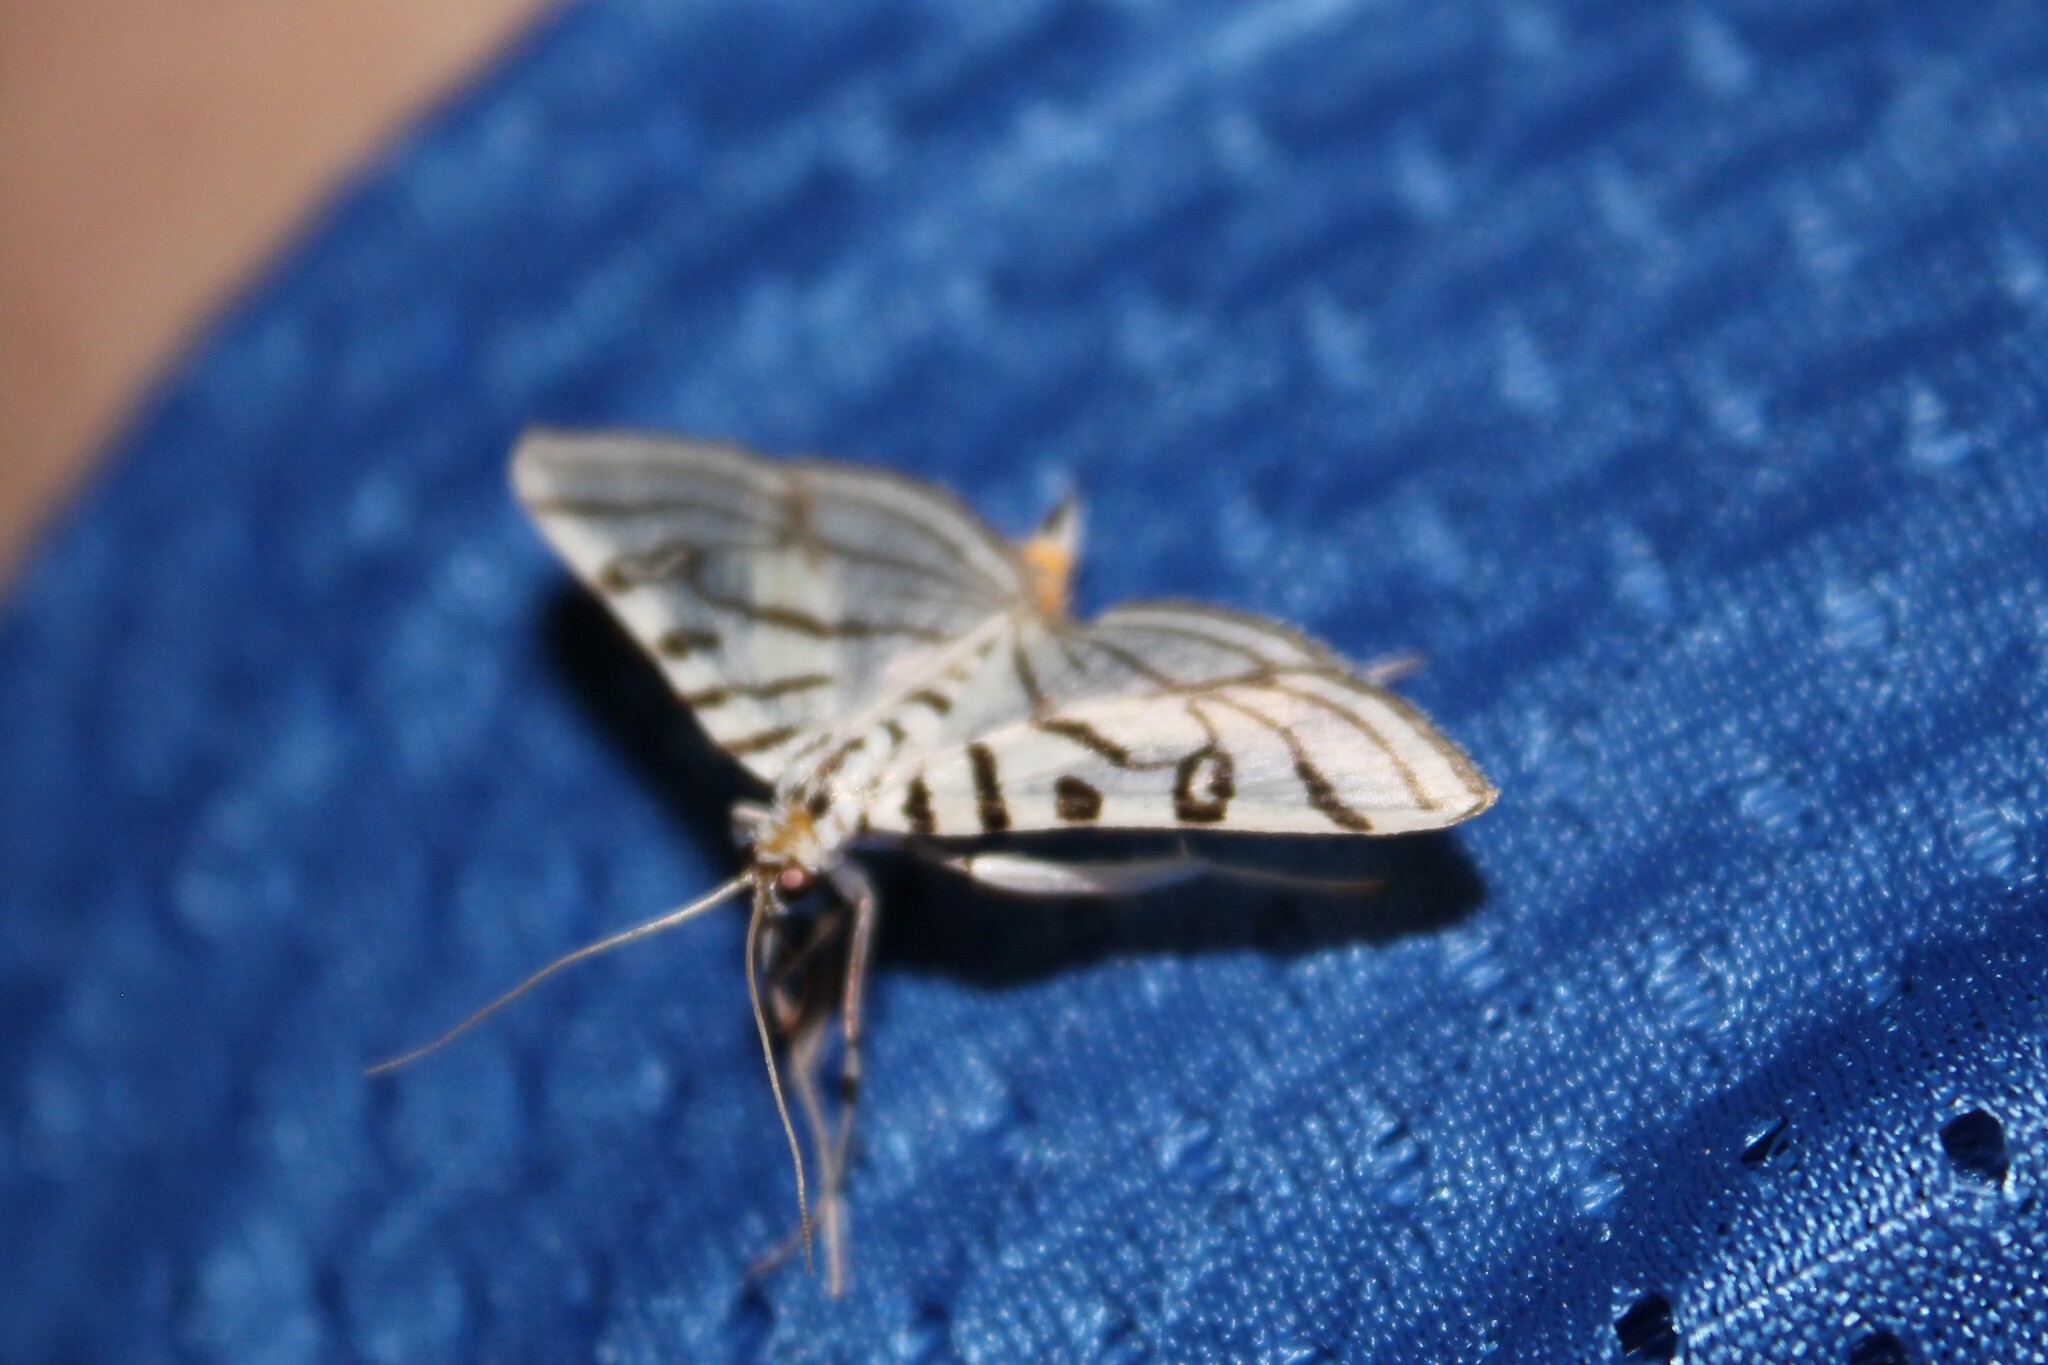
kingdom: Animalia
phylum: Arthropoda
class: Insecta
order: Lepidoptera
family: Crambidae
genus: Conchylodes
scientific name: Conchylodes ovulalis
